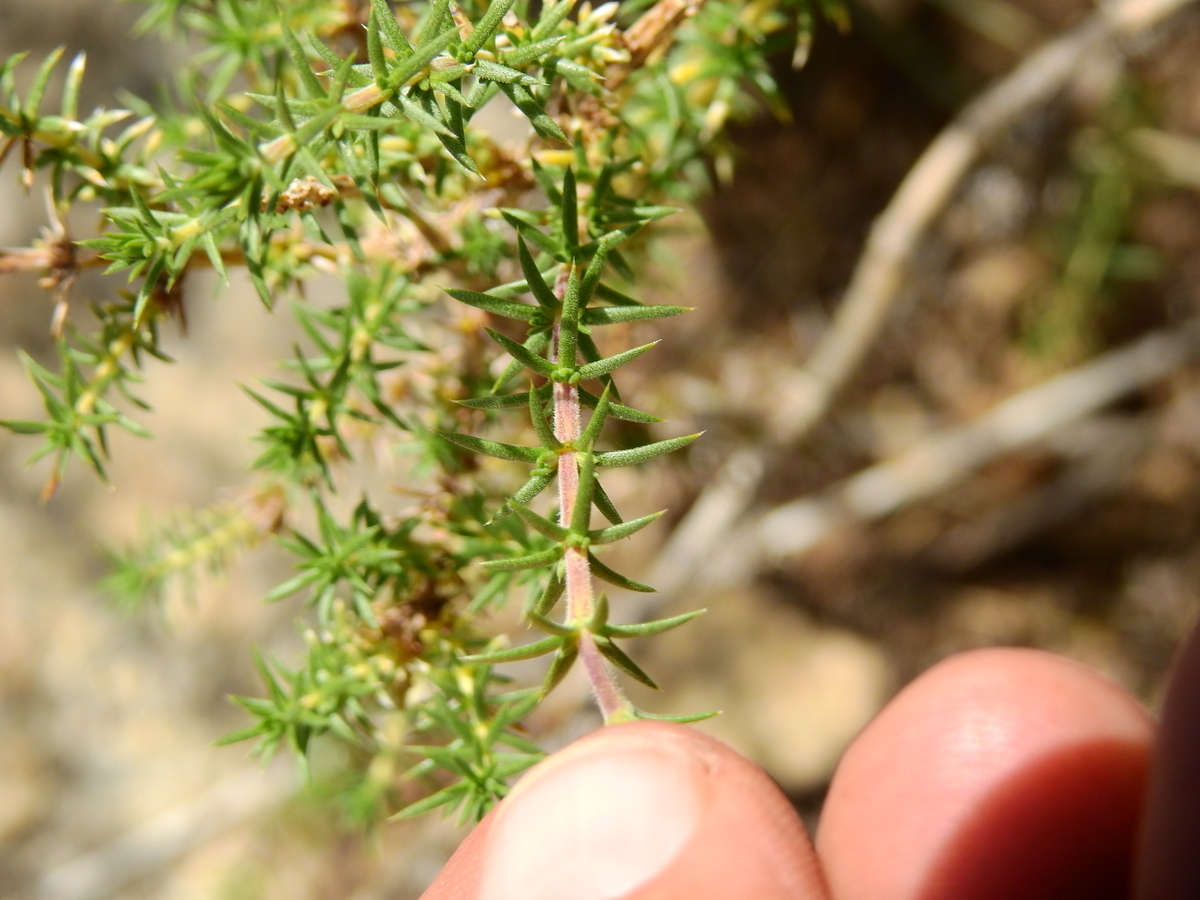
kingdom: Plantae
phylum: Tracheophyta
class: Magnoliopsida
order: Lamiales
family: Verbenaceae
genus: Junellia
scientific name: Junellia juniperina
